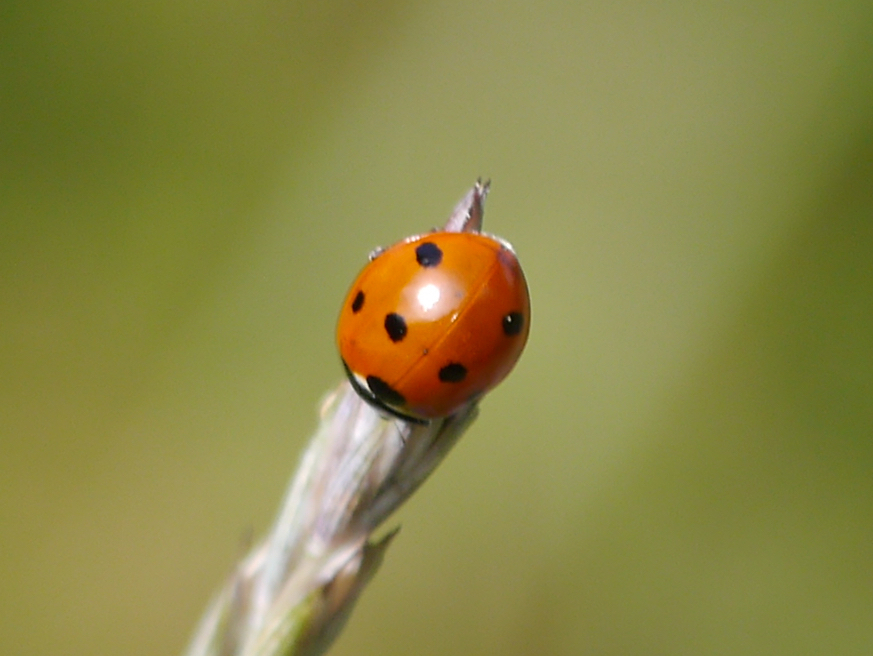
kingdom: Animalia
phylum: Arthropoda
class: Insecta
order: Coleoptera
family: Coccinellidae
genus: Coccinella
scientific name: Coccinella septempunctata
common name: Sevenspotted lady beetle
